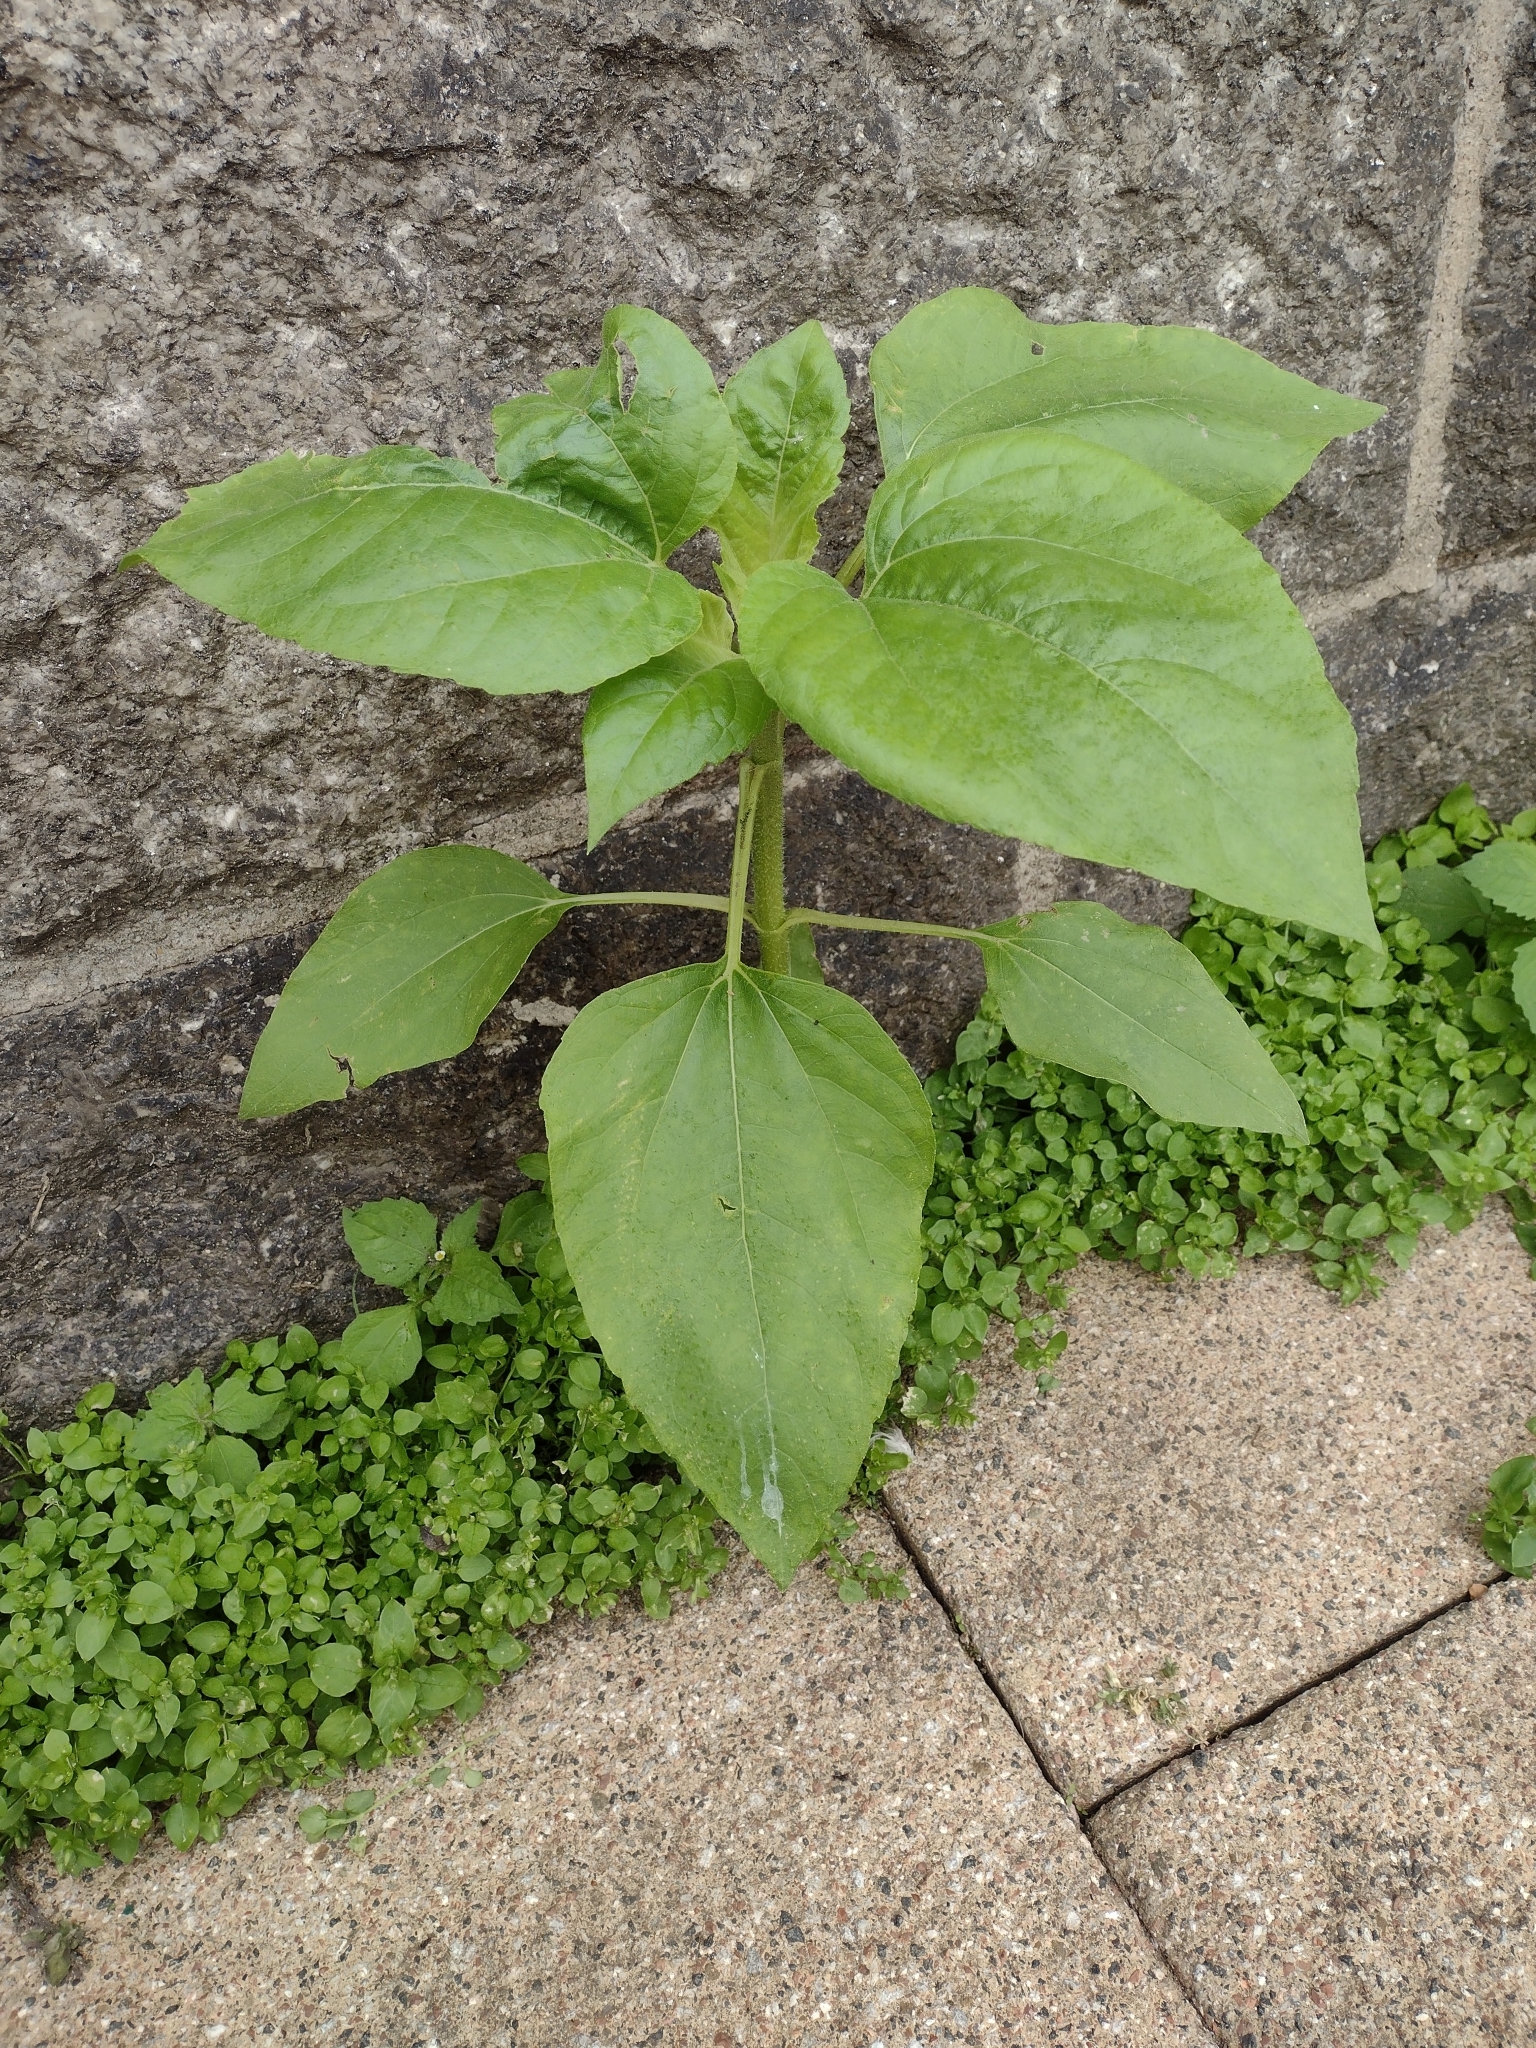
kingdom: Plantae
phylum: Tracheophyta
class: Magnoliopsida
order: Asterales
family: Asteraceae
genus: Helianthus
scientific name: Helianthus annuus
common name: Sunflower
